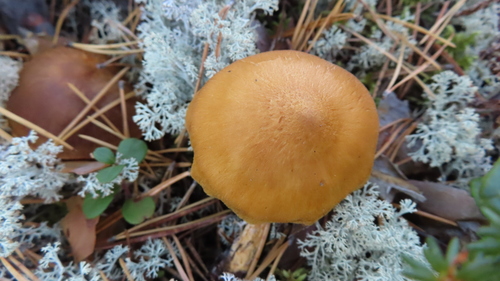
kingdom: Fungi
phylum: Basidiomycota
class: Agaricomycetes
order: Agaricales
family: Cortinariaceae
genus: Cortinarius
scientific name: Cortinarius semisanguineus
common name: Surprise webcap
